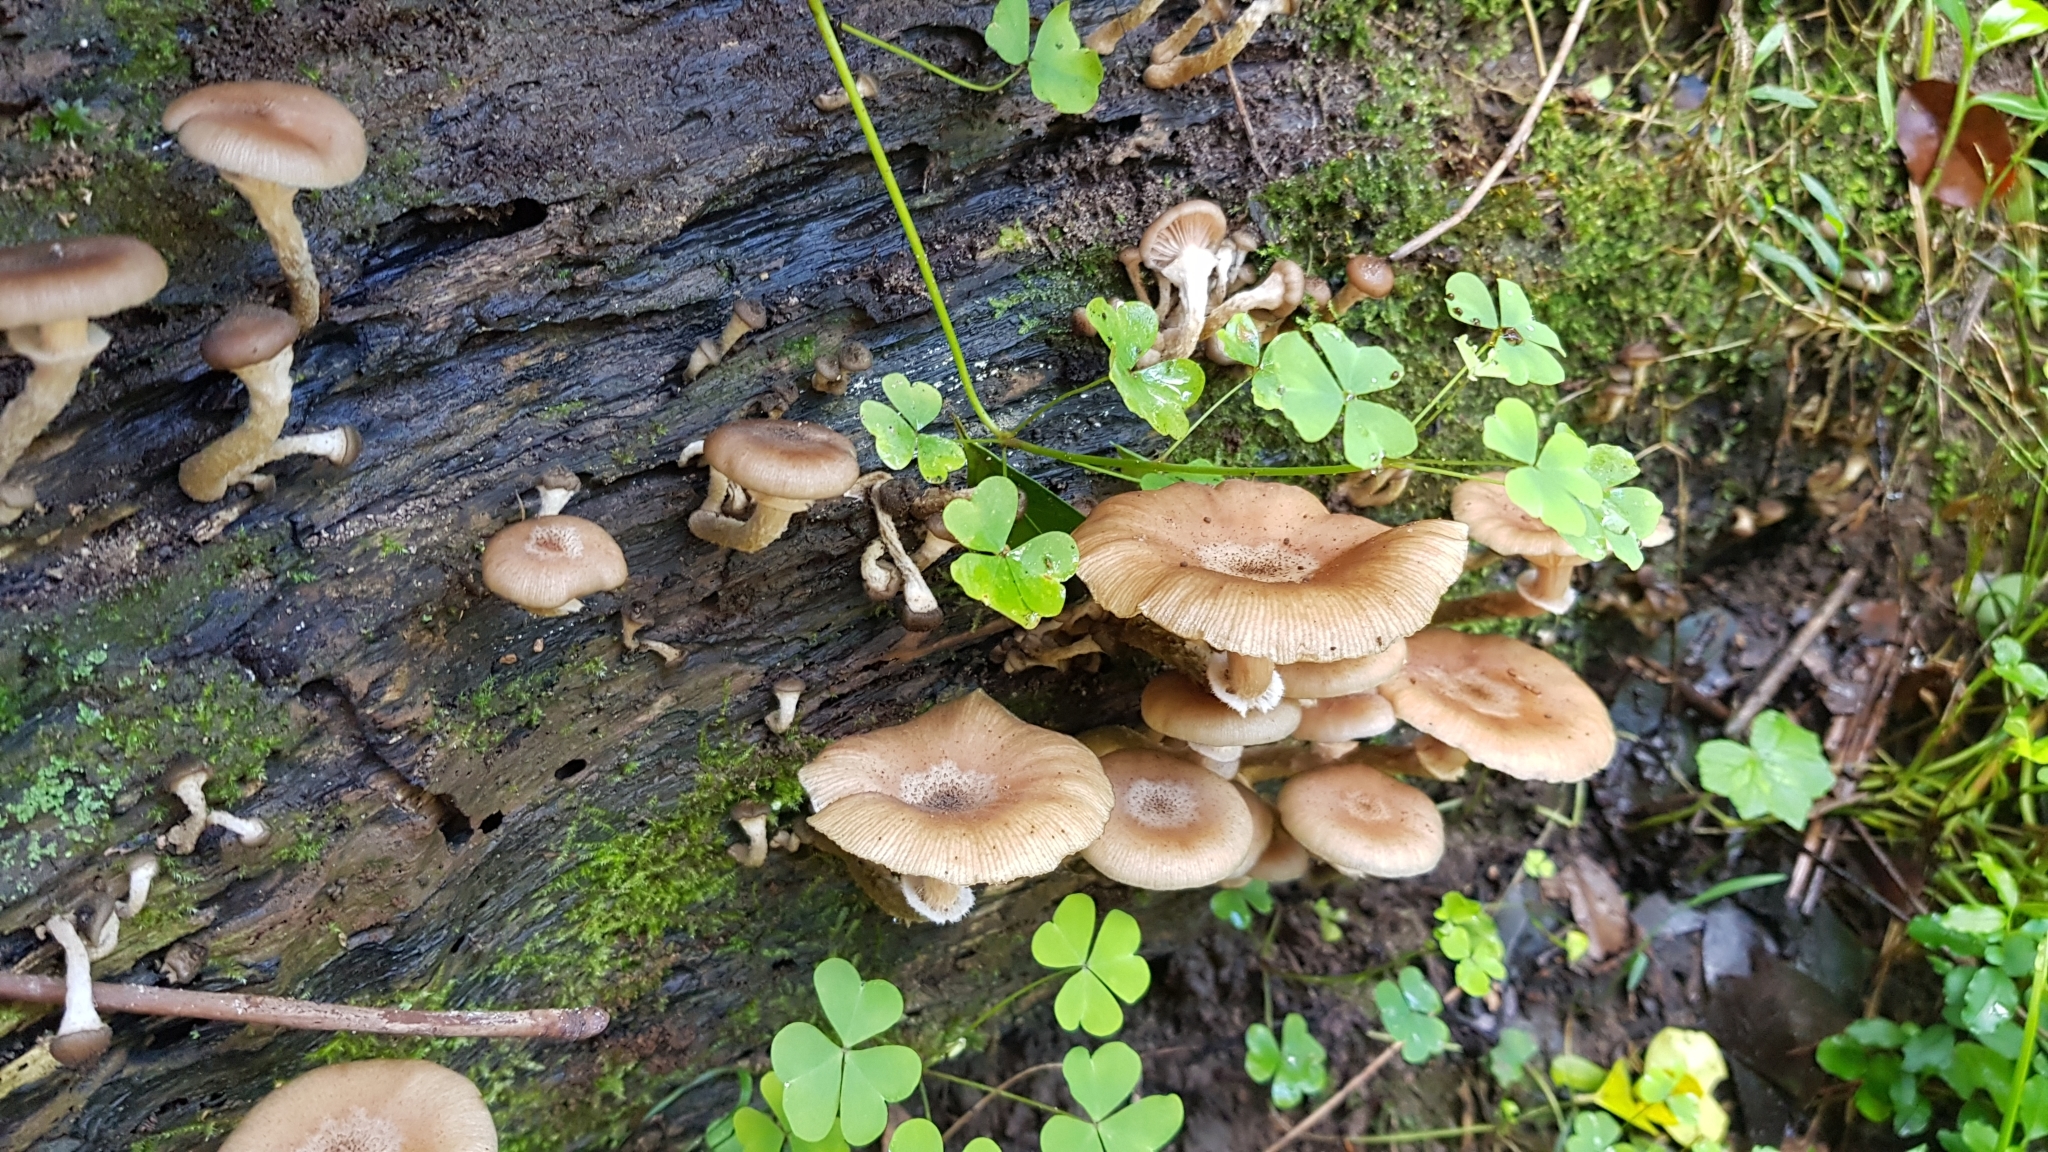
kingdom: Fungi
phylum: Basidiomycota
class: Agaricomycetes
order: Agaricales
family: Physalacriaceae
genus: Armillaria
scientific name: Armillaria novae-zelandiae
